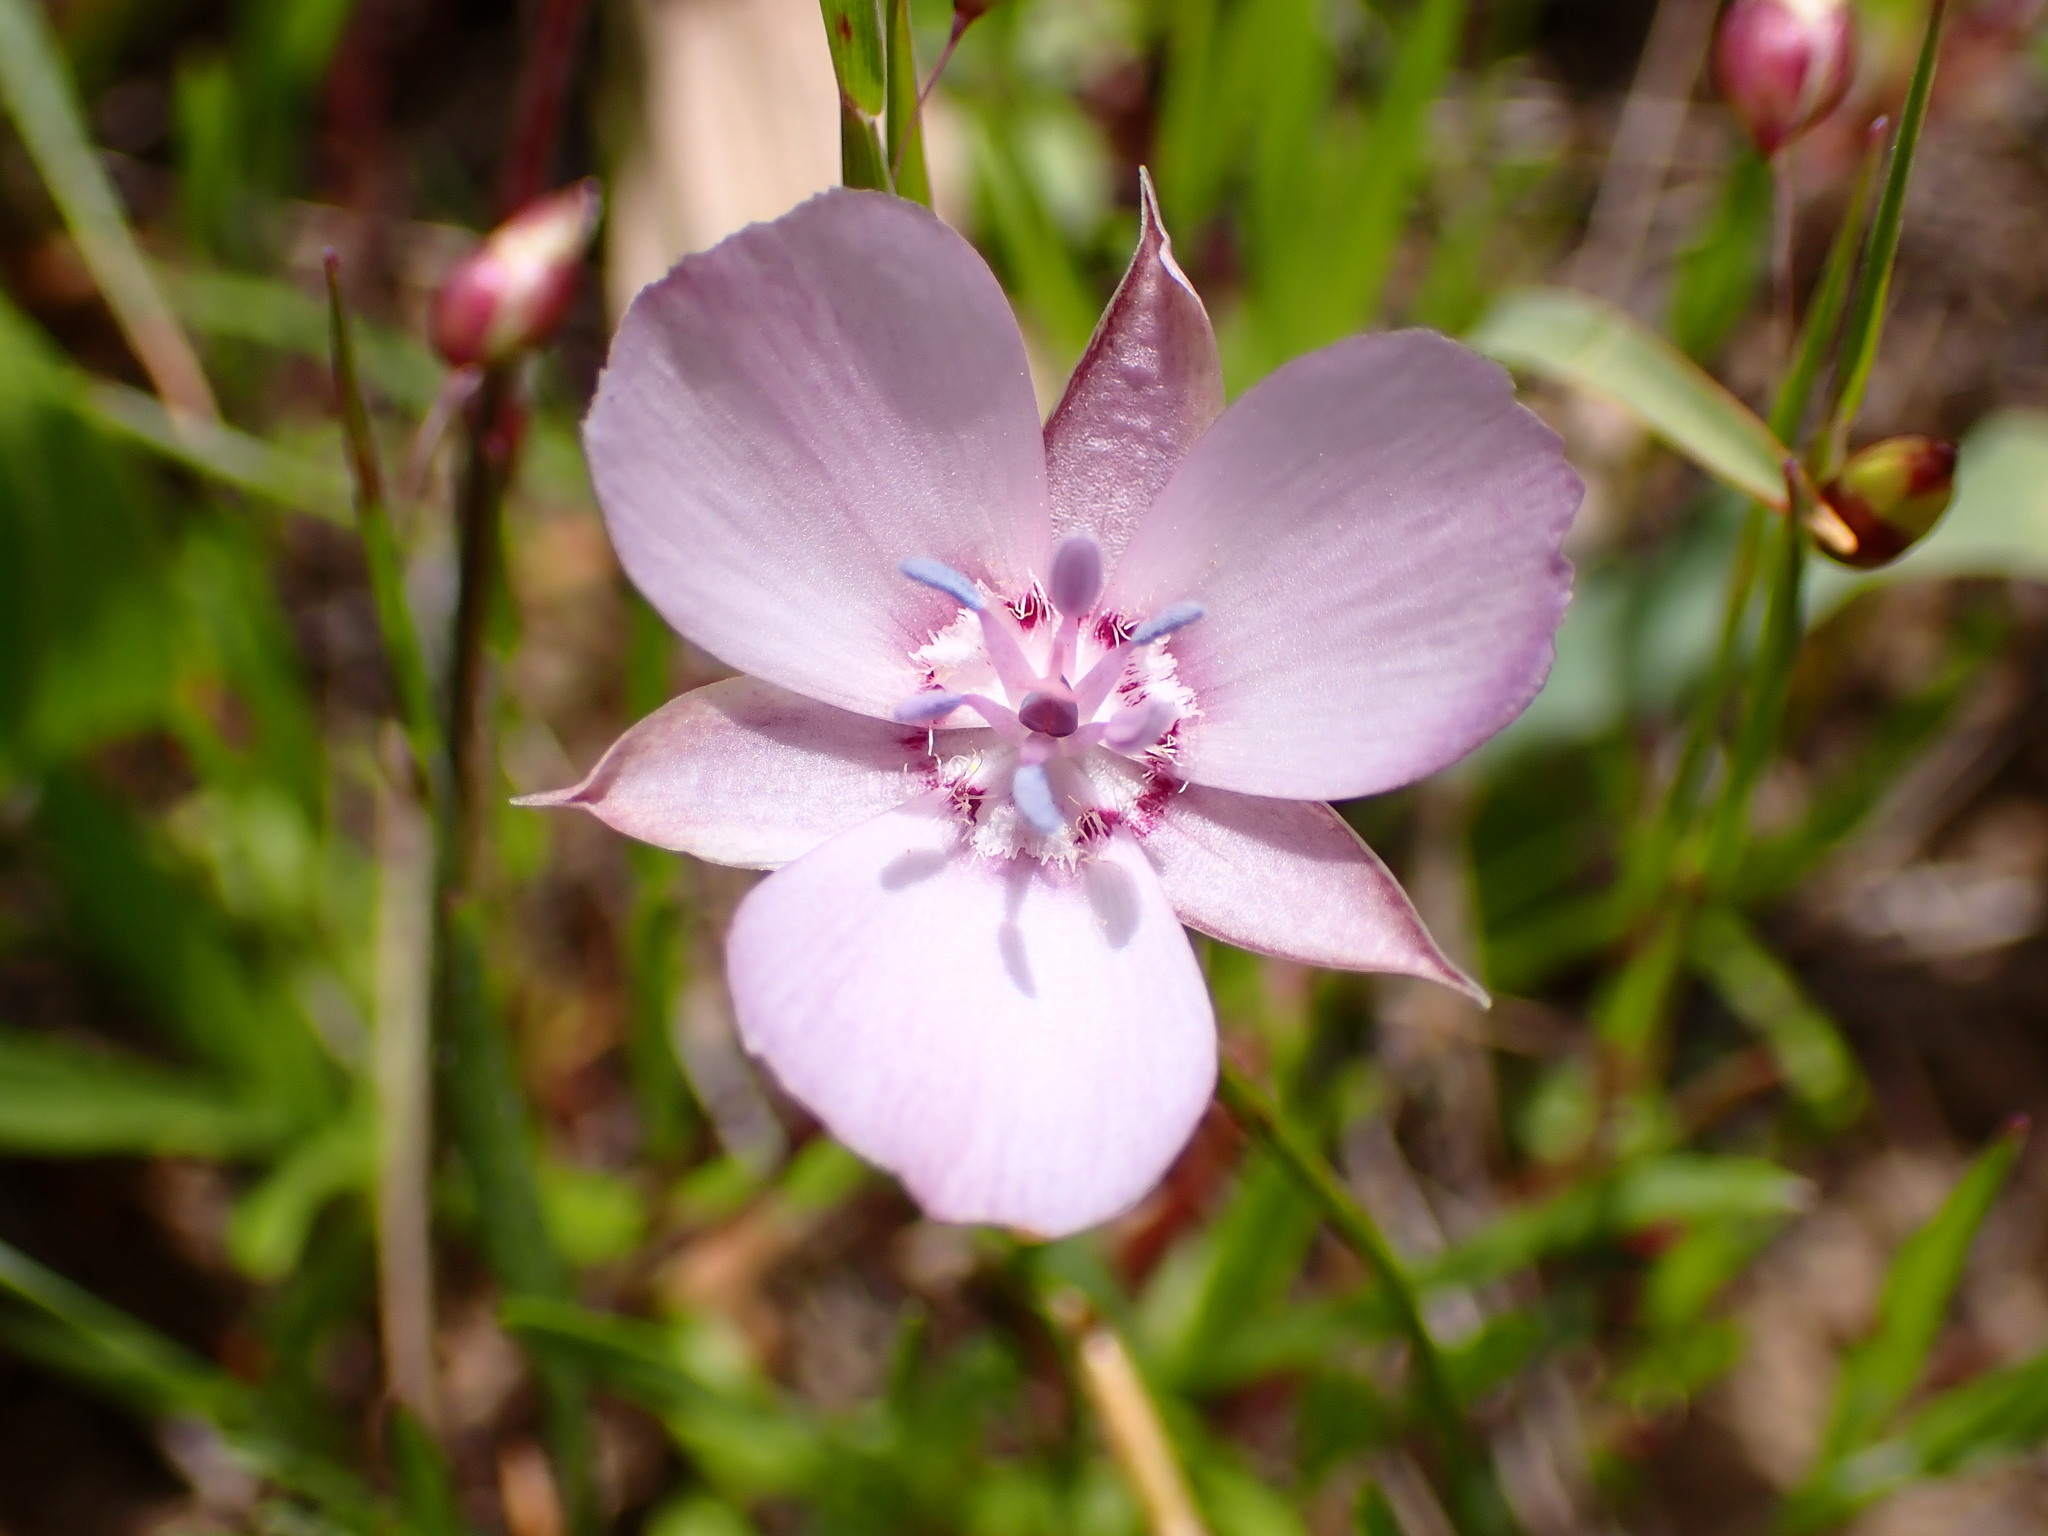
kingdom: Plantae
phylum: Tracheophyta
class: Liliopsida
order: Liliales
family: Liliaceae
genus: Calochortus
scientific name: Calochortus umbellatus
